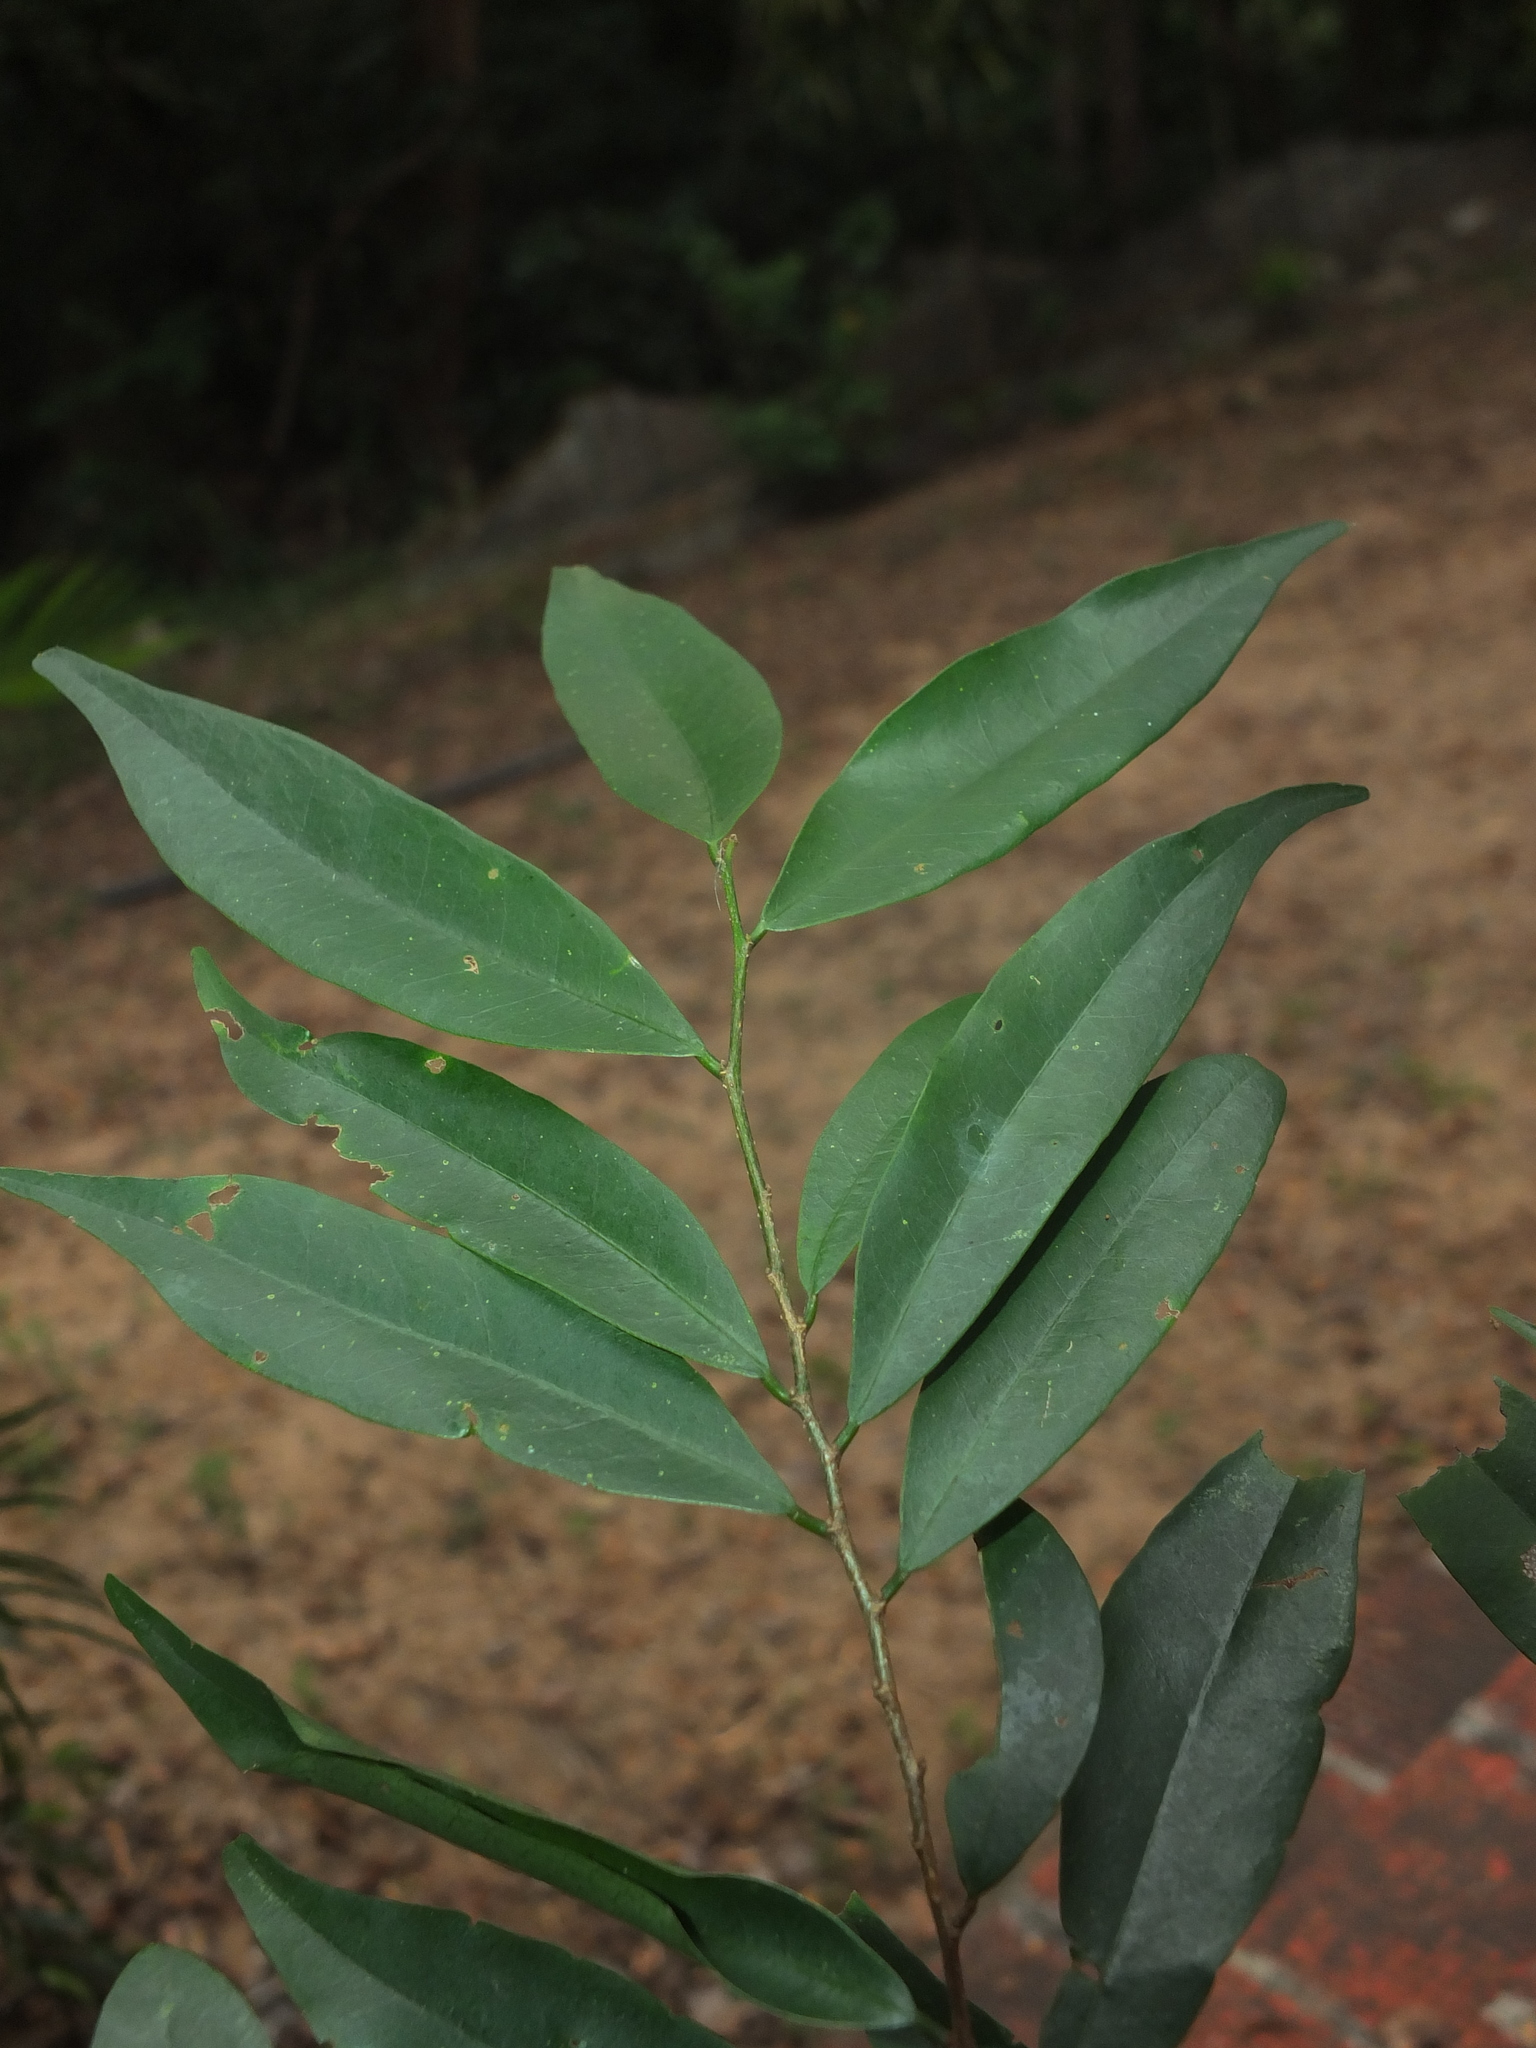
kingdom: Plantae
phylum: Tracheophyta
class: Magnoliopsida
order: Ericales
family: Ebenaceae
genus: Diospyros
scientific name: Diospyros atrata
